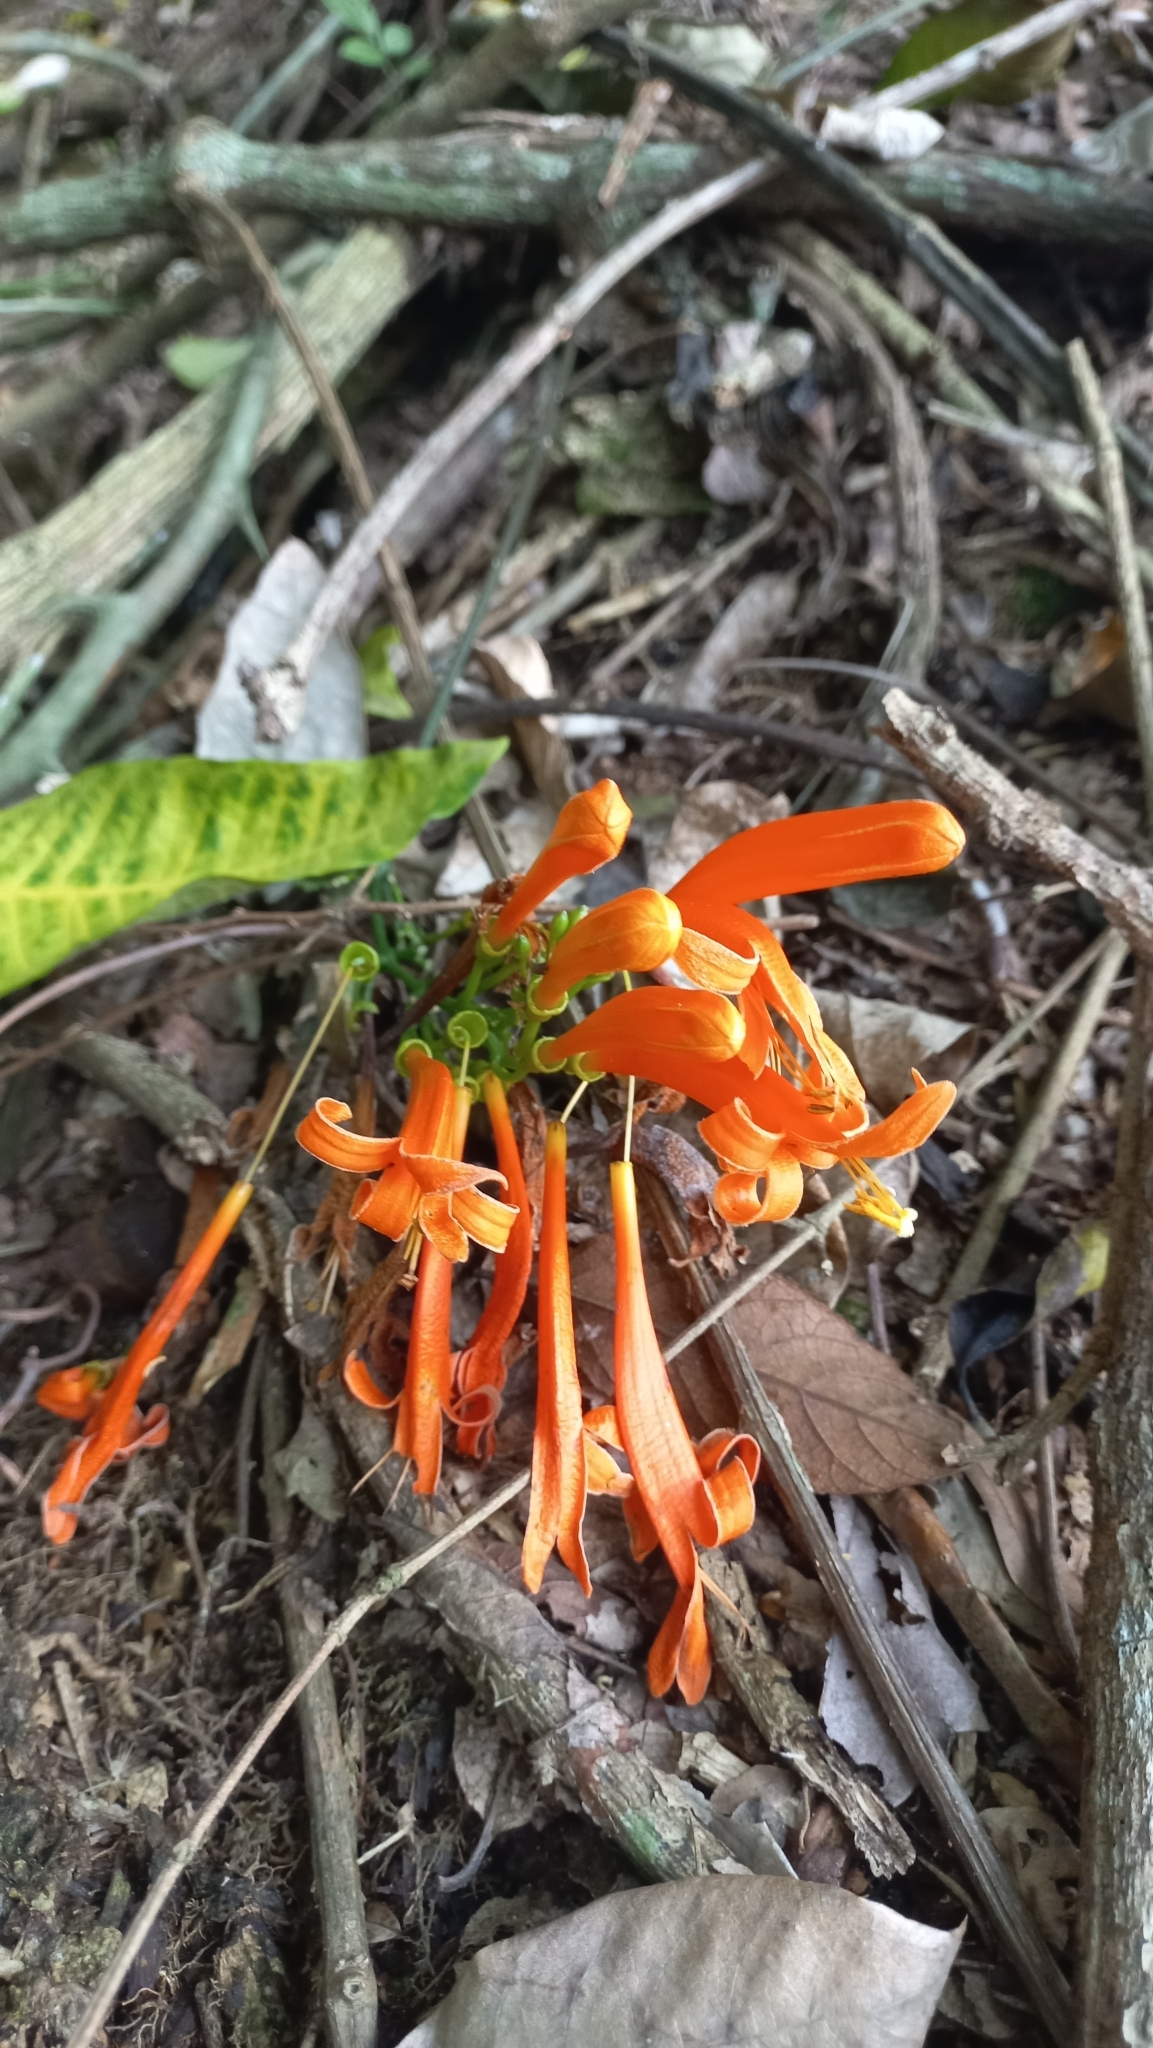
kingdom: Plantae
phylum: Tracheophyta
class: Magnoliopsida
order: Lamiales
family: Bignoniaceae
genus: Pyrostegia
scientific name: Pyrostegia venusta
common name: Flamevine
